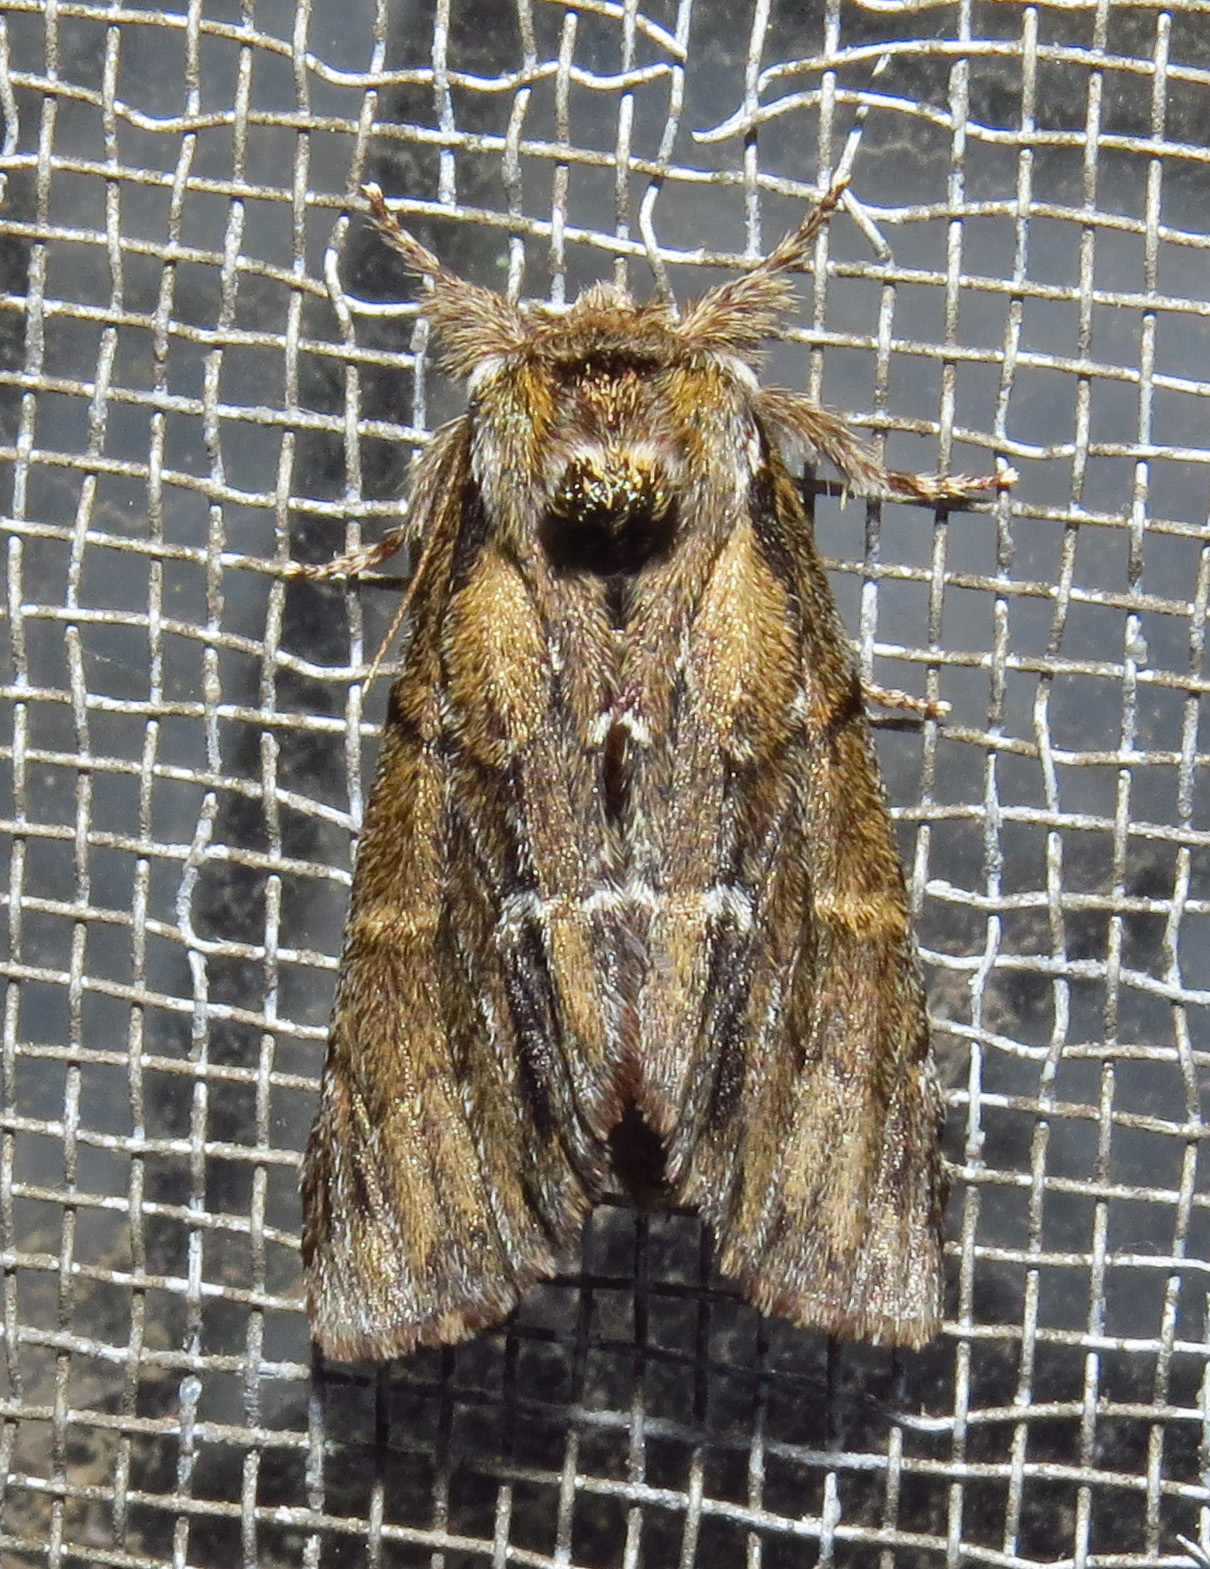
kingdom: Animalia
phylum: Arthropoda
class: Insecta
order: Lepidoptera
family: Notodontidae
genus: Paraeschra
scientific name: Paraeschra georgica
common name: Georgian prominent
